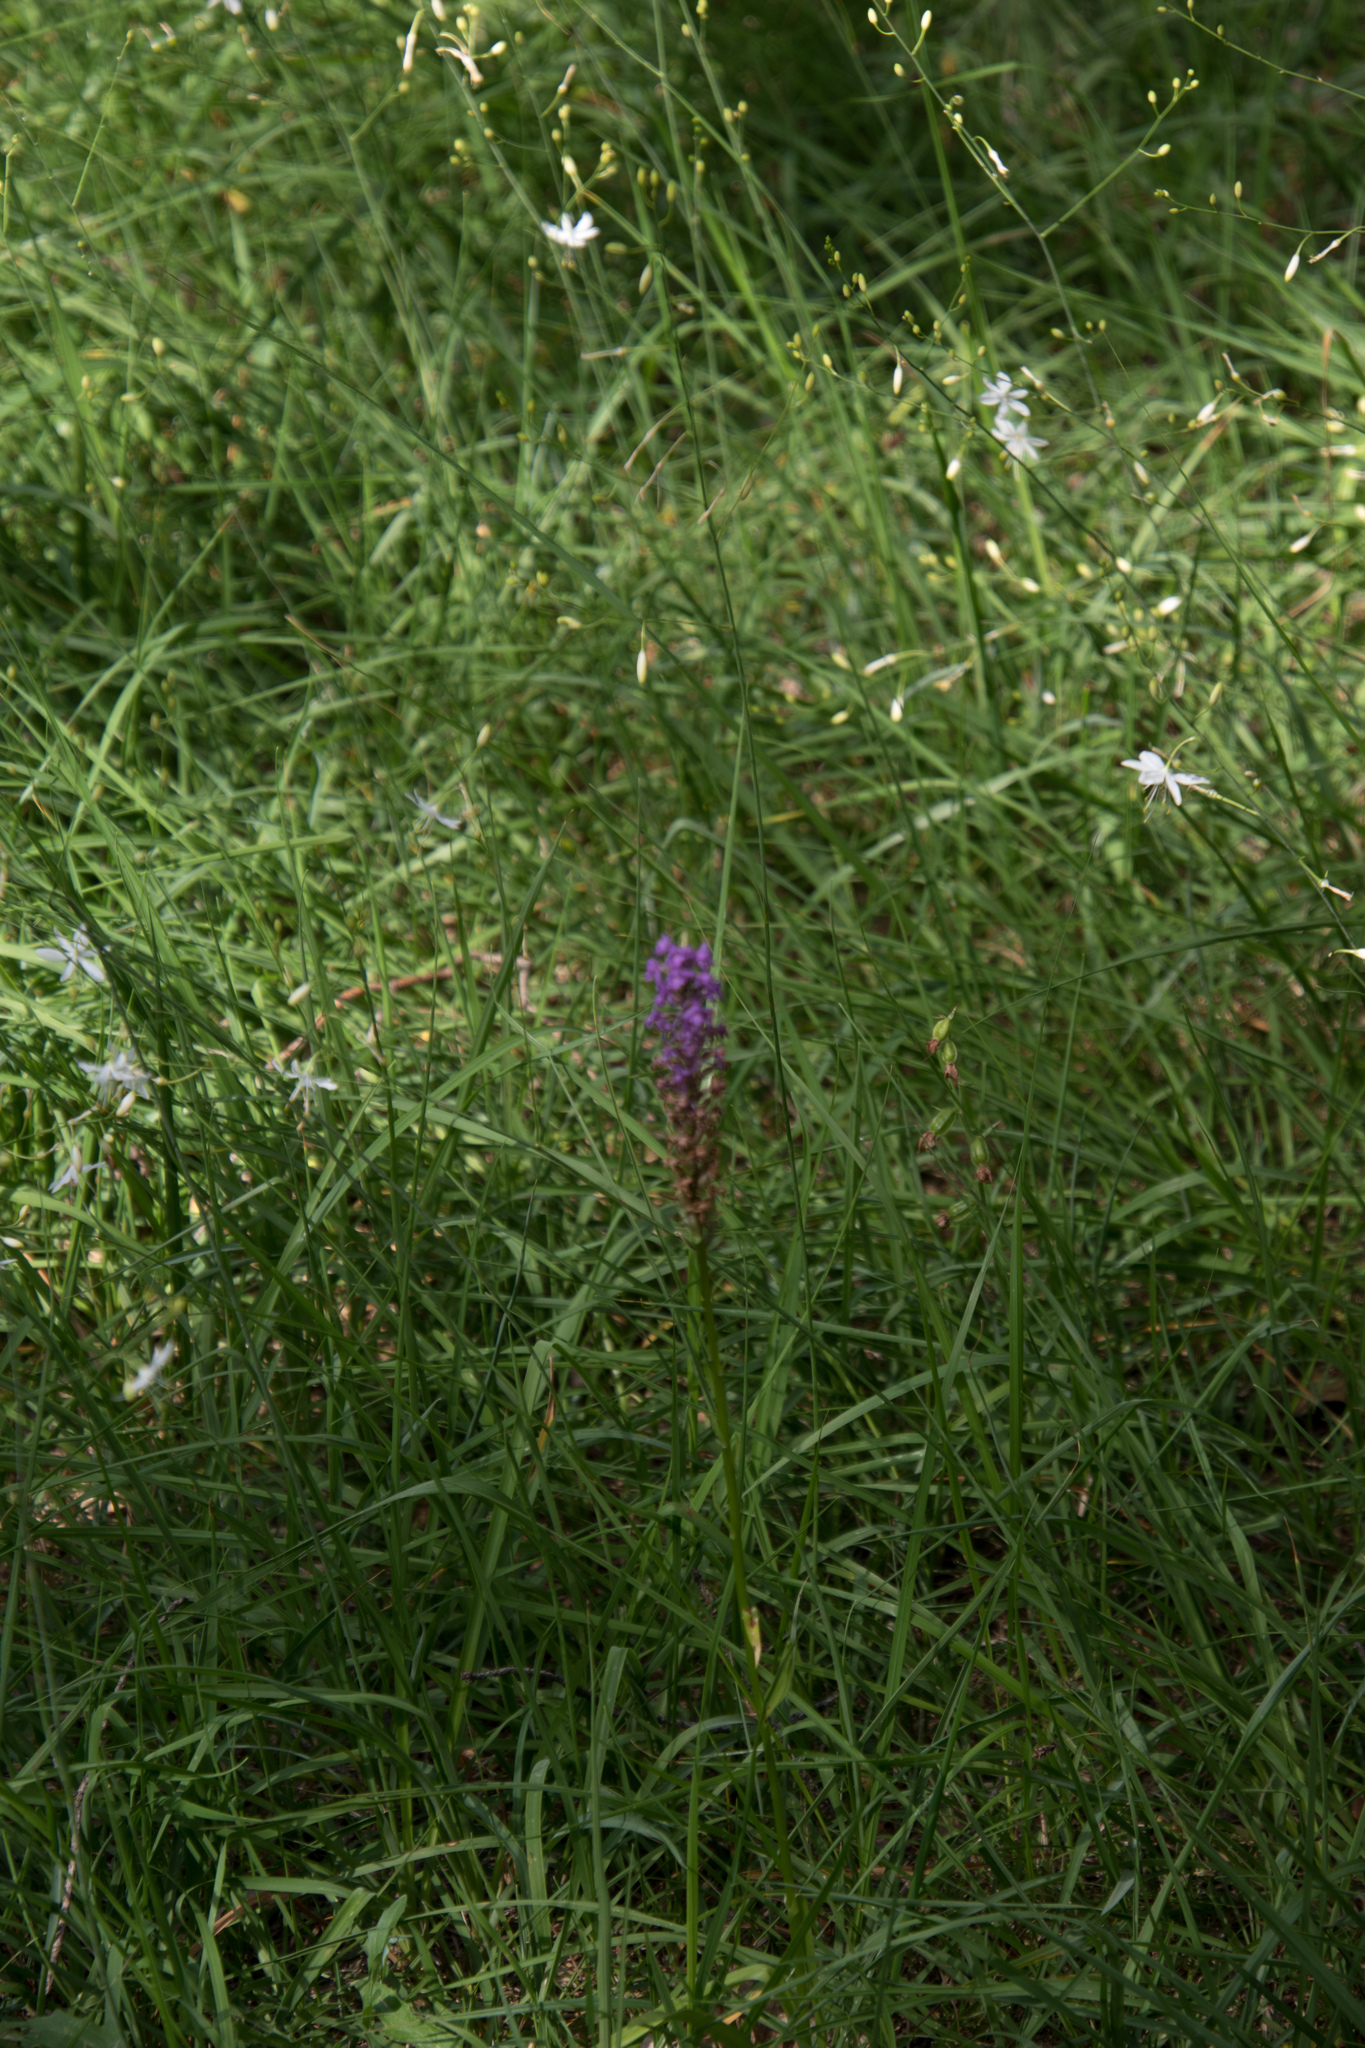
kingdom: Plantae
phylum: Tracheophyta
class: Liliopsida
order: Asparagales
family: Orchidaceae
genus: Gymnadenia
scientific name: Gymnadenia conopsea
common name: Fragrant orchid
